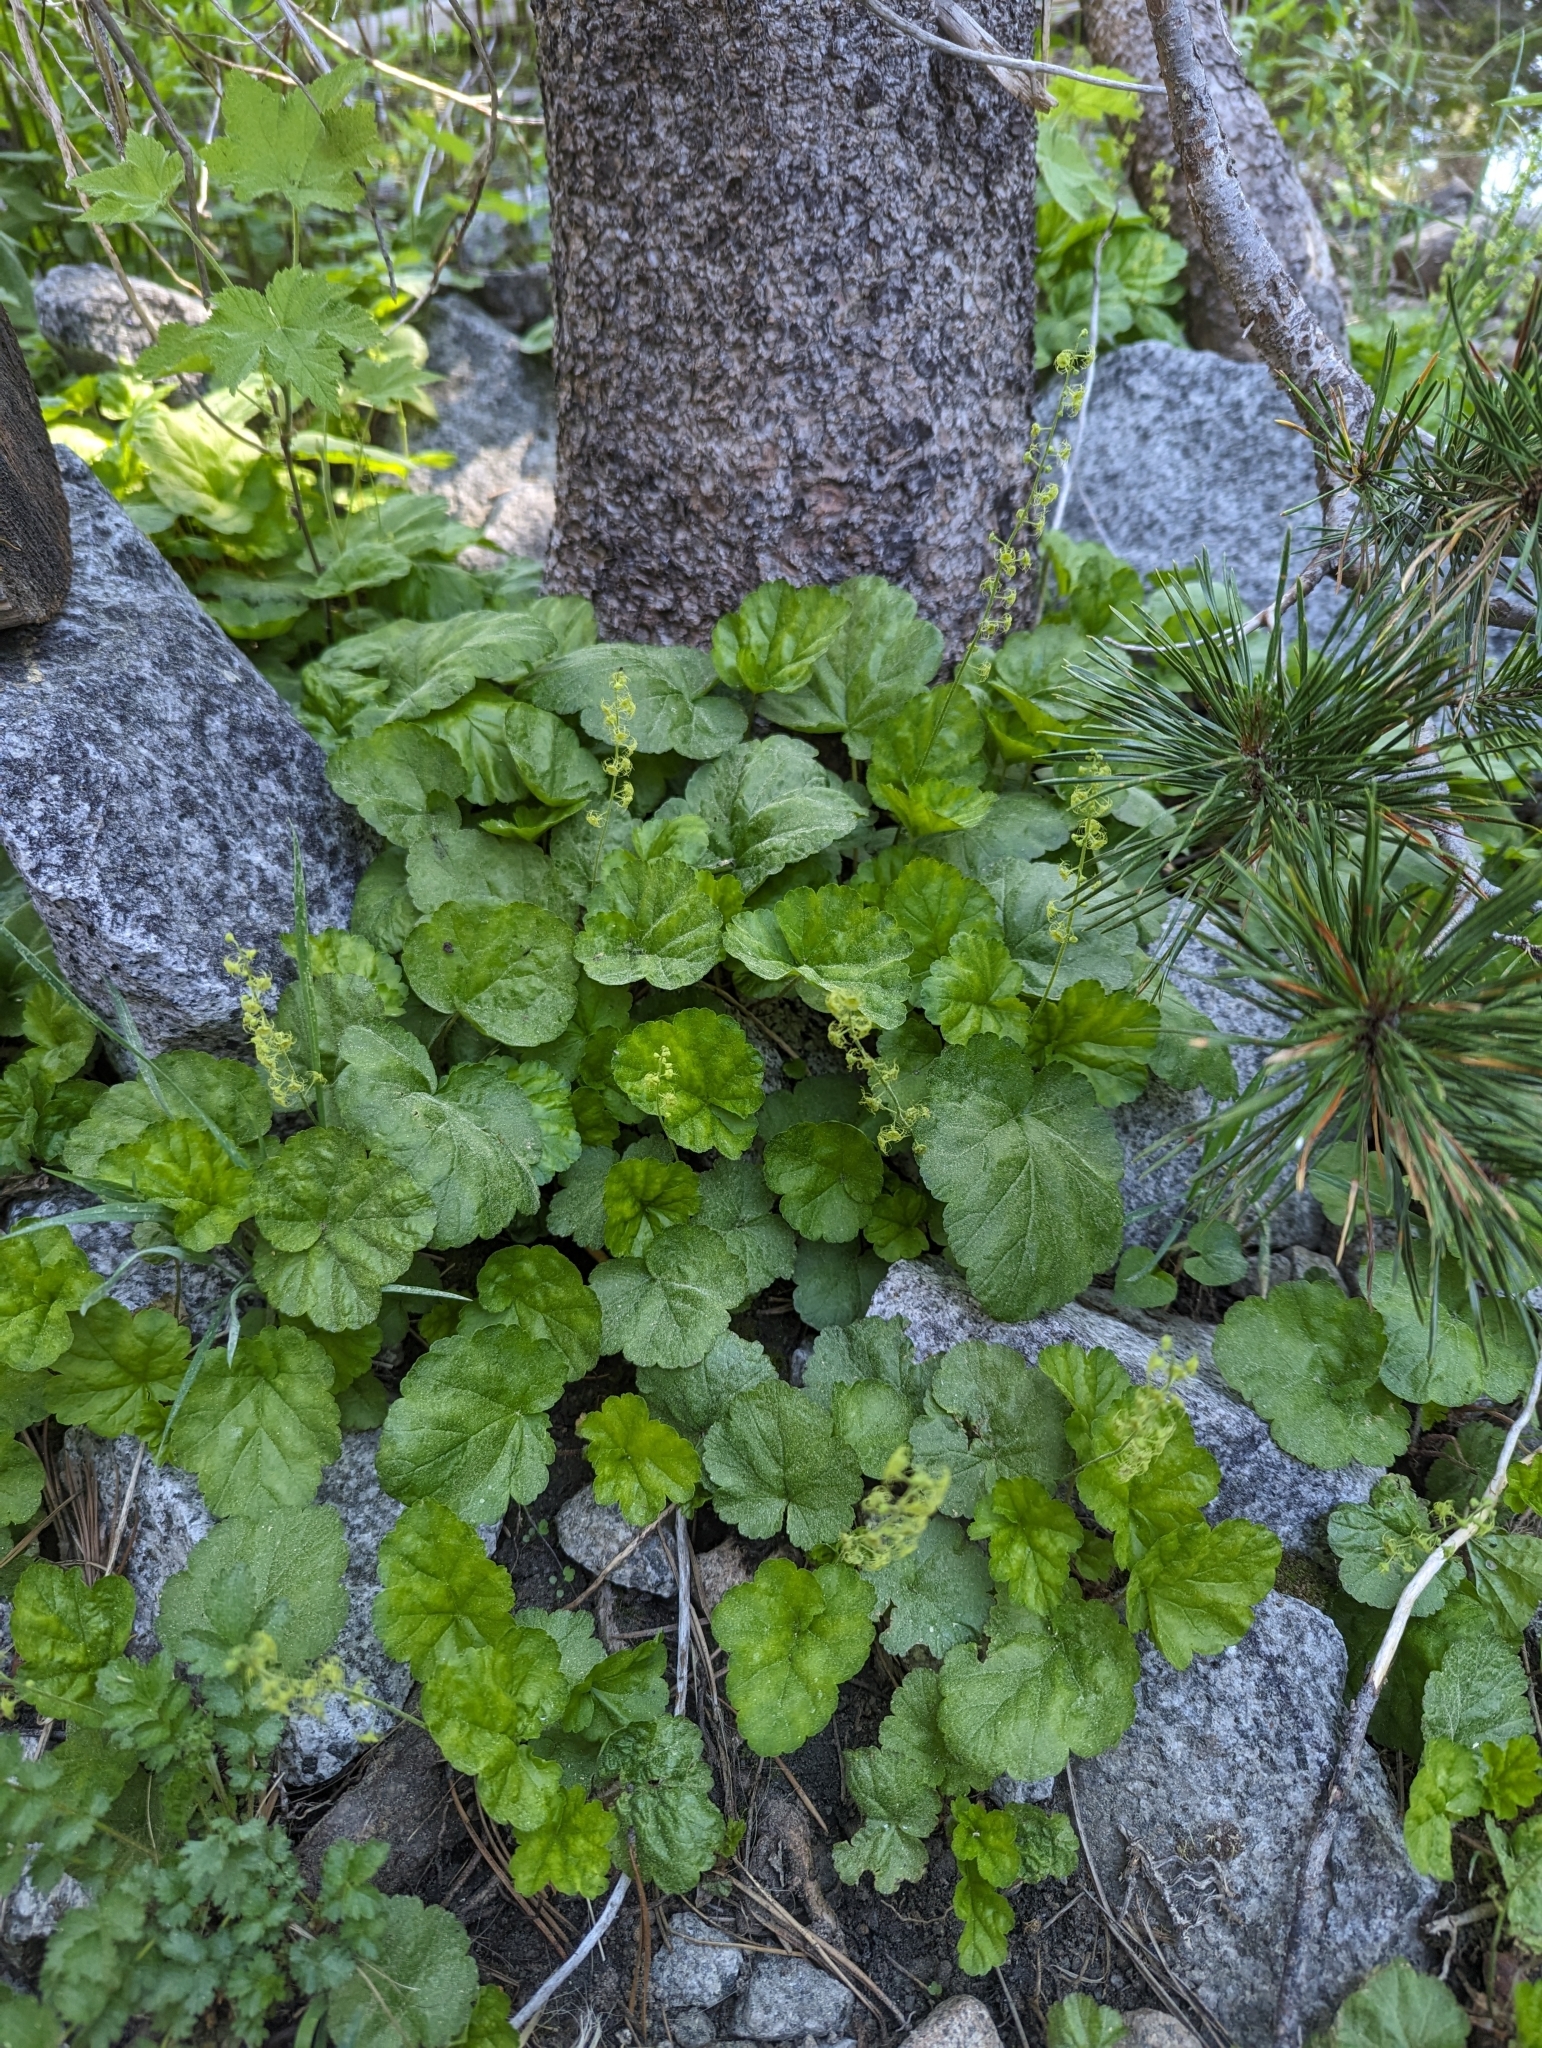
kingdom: Plantae
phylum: Tracheophyta
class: Magnoliopsida
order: Saxifragales
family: Saxifragaceae
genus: Brewerimitella
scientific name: Brewerimitella breweri
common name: Brewer's bishop's-cap
